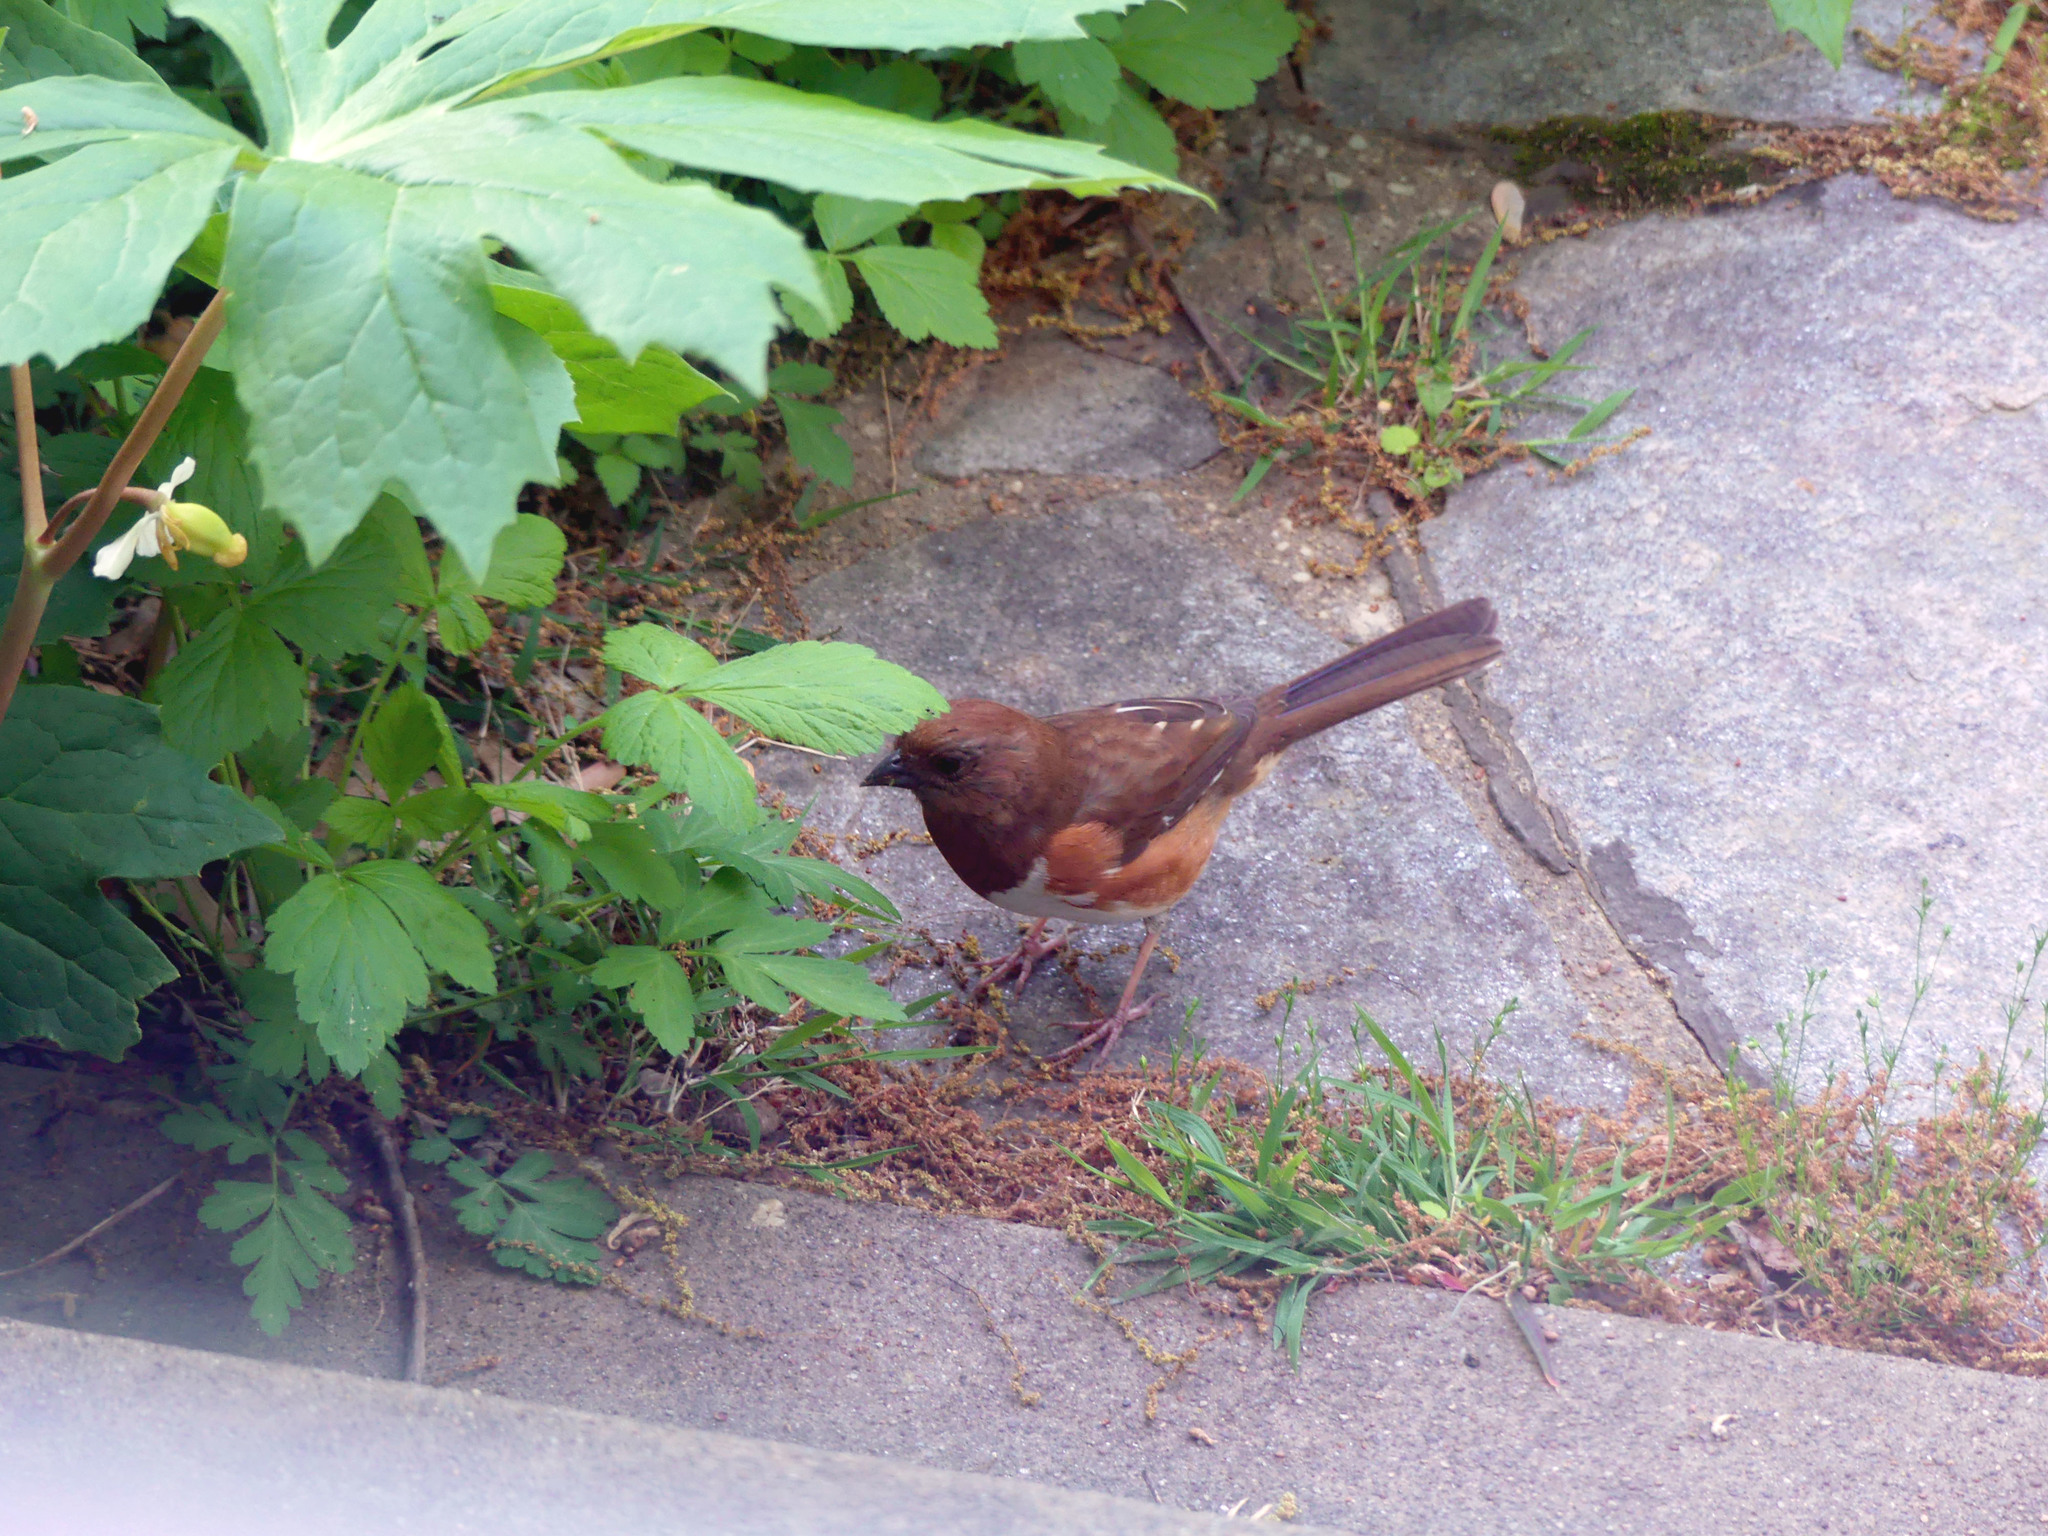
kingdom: Animalia
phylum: Chordata
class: Aves
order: Passeriformes
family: Passerellidae
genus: Pipilo
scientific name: Pipilo erythrophthalmus
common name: Eastern towhee
